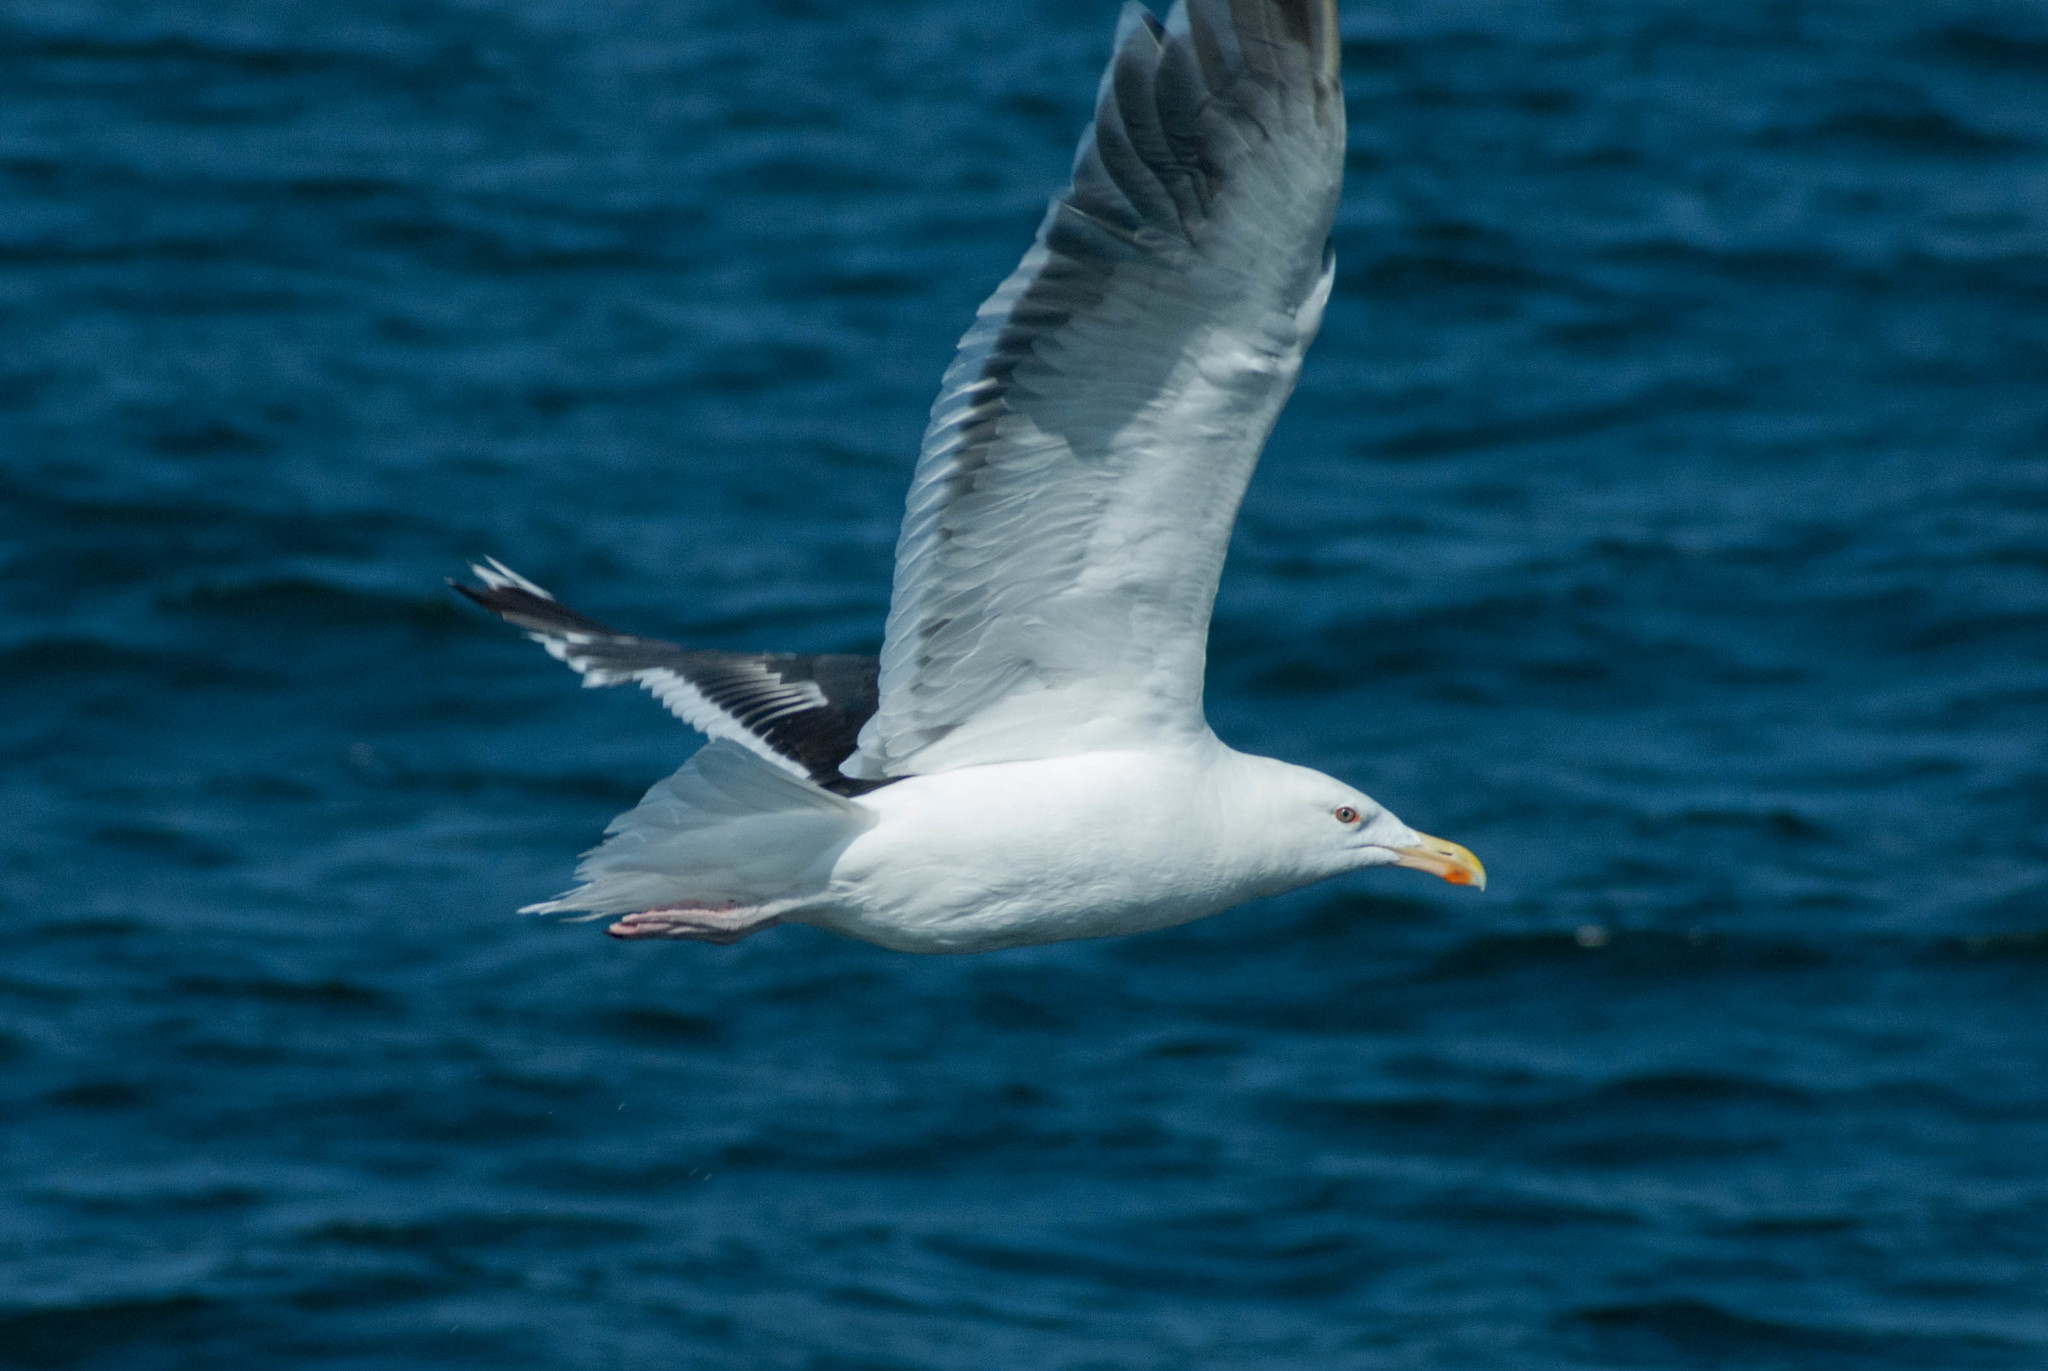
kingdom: Animalia
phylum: Chordata
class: Aves
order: Charadriiformes
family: Laridae
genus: Larus
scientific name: Larus marinus
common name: Great black-backed gull
